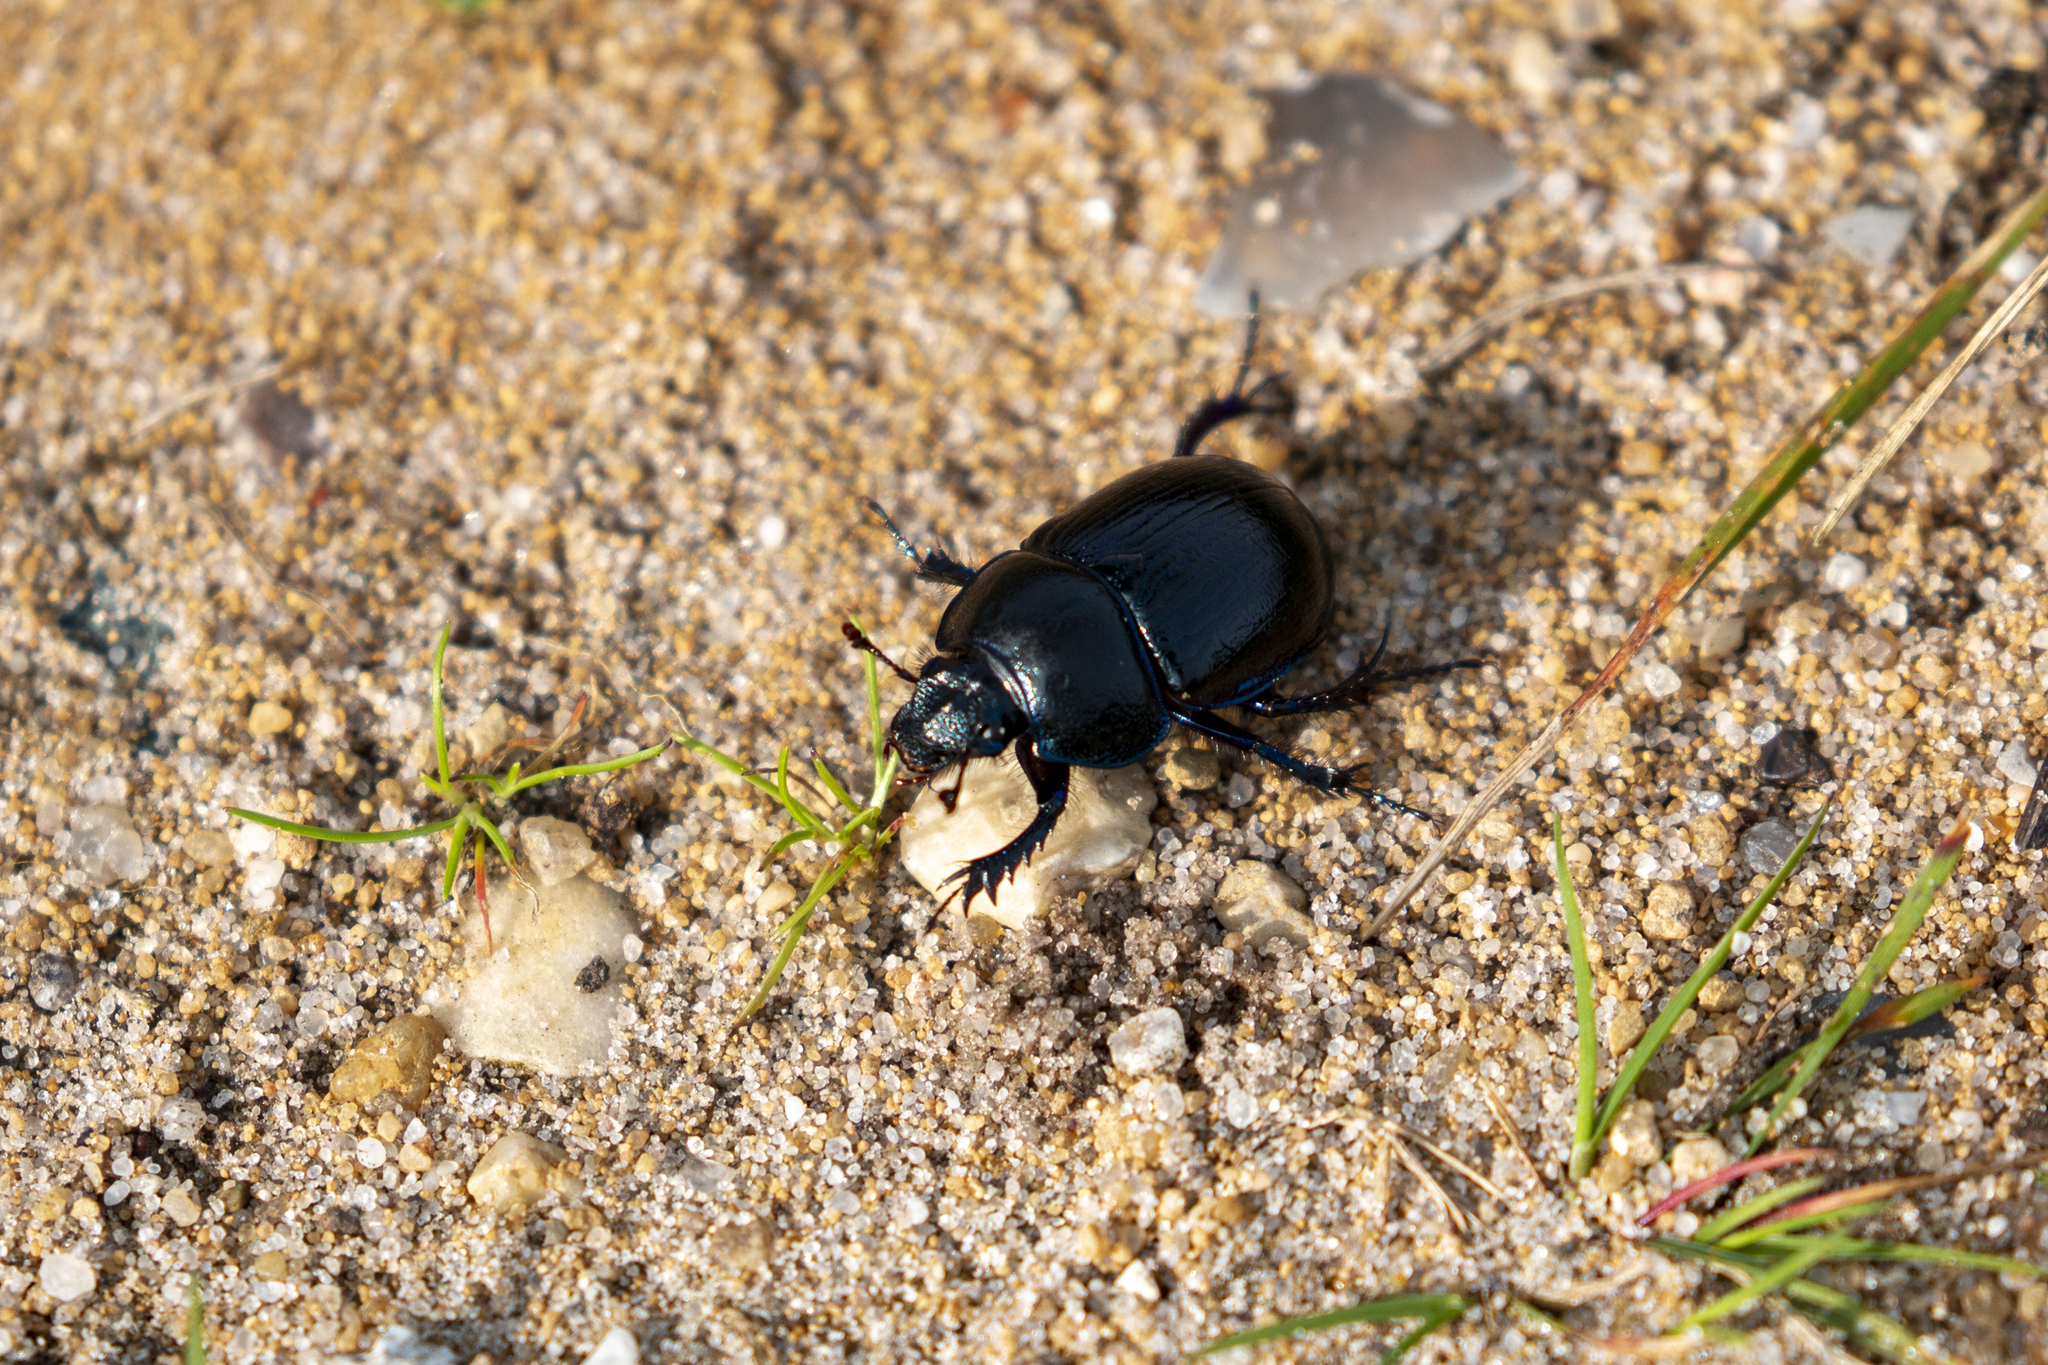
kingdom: Animalia
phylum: Arthropoda
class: Insecta
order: Coleoptera
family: Geotrupidae
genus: Anoplotrupes
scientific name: Anoplotrupes stercorosus
